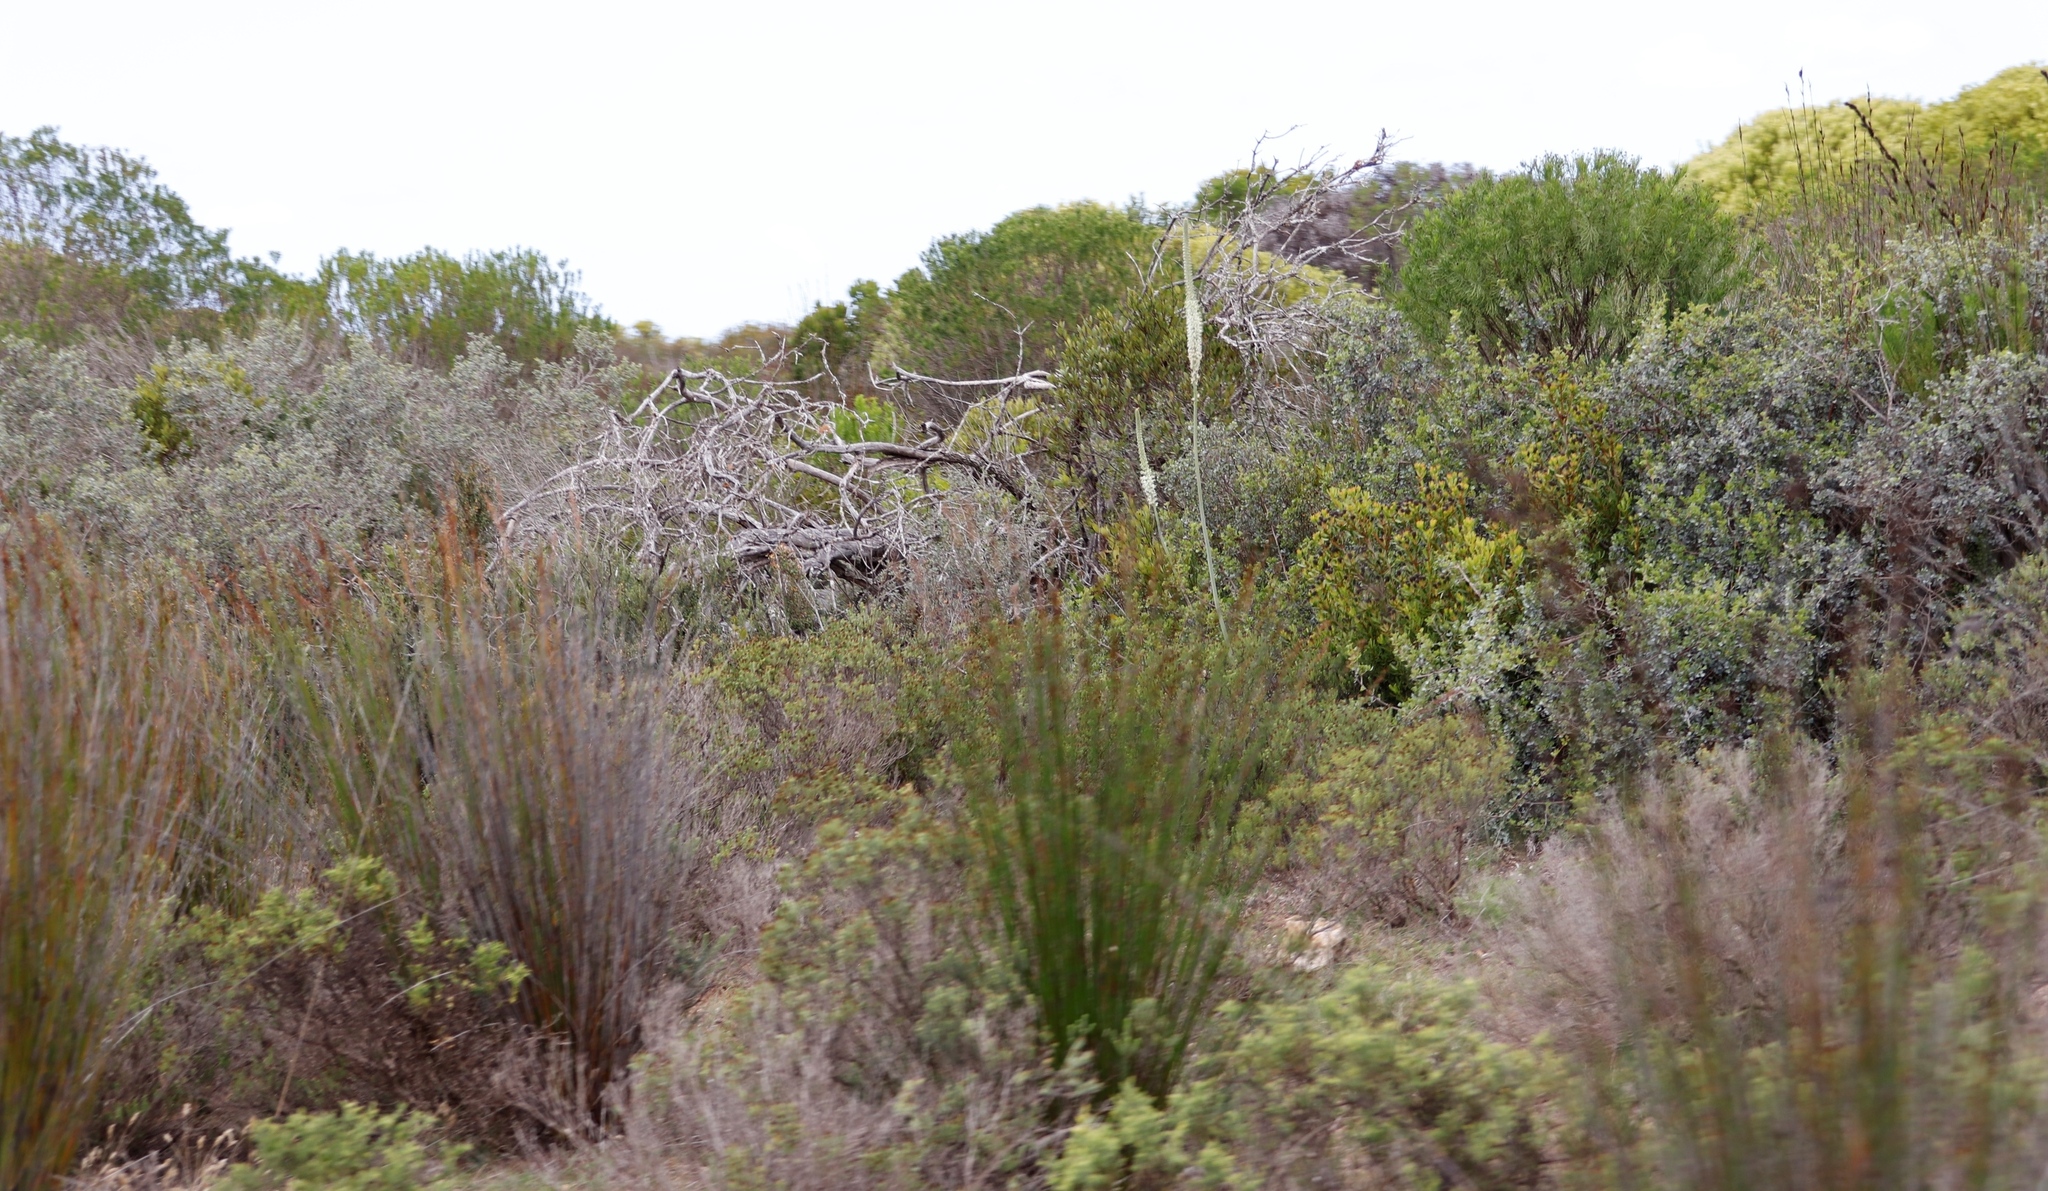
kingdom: Plantae
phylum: Tracheophyta
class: Liliopsida
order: Asparagales
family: Asparagaceae
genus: Drimia
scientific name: Drimia capensis
